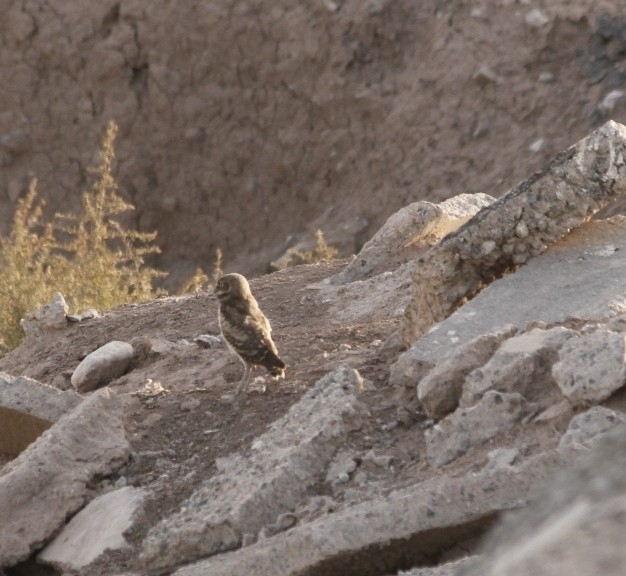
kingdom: Animalia
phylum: Chordata
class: Aves
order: Strigiformes
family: Strigidae
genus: Athene
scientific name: Athene cunicularia
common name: Burrowing owl
